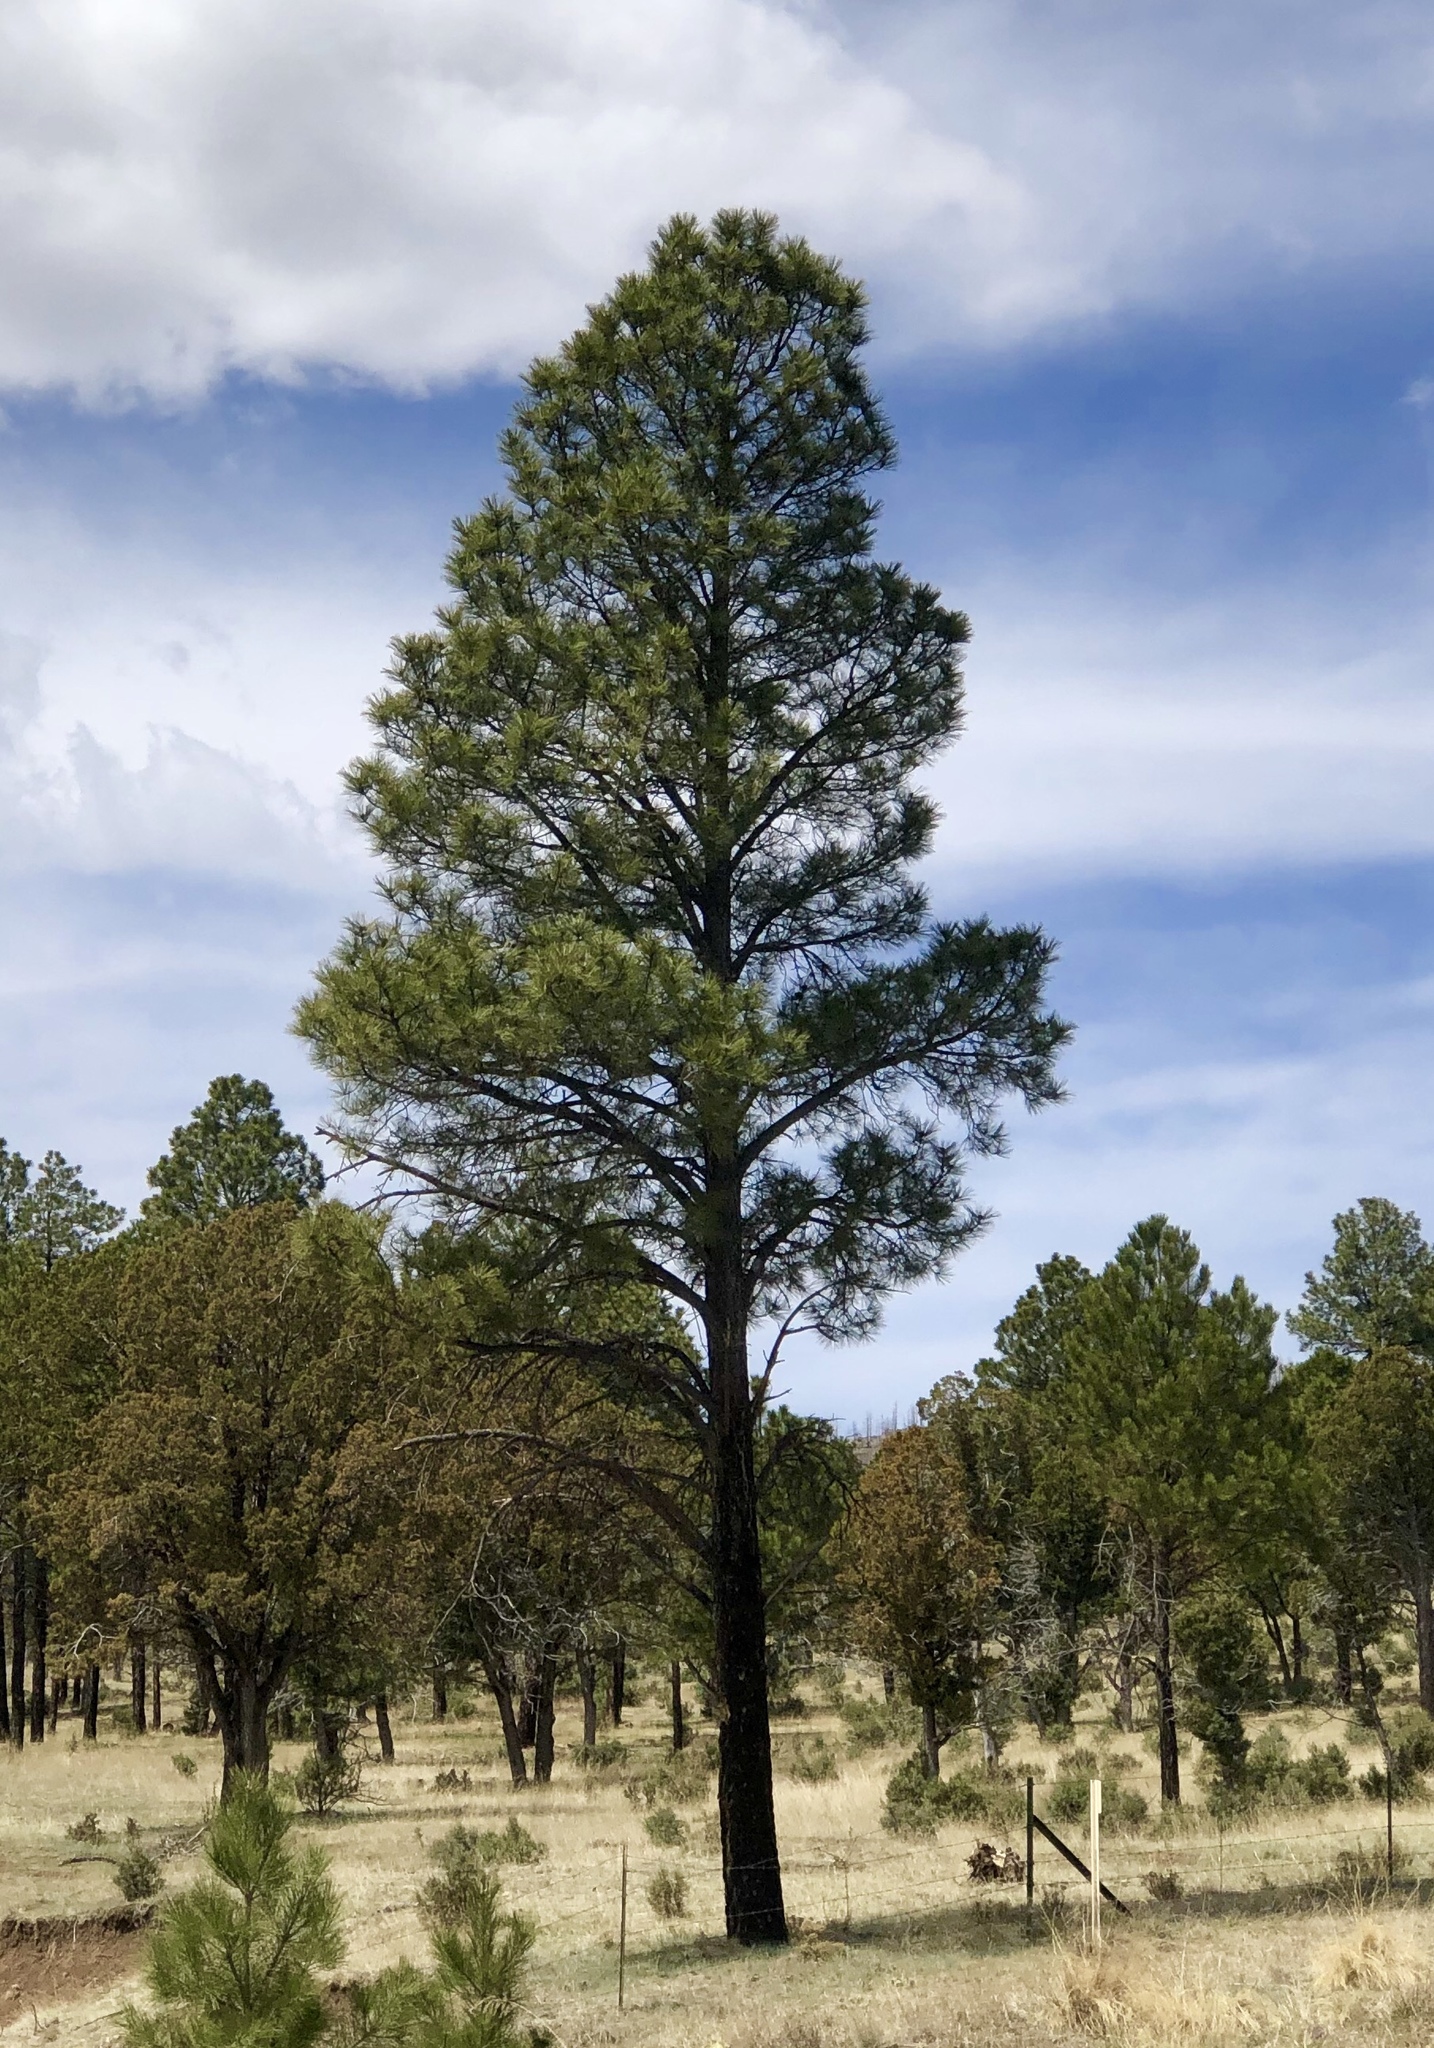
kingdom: Plantae
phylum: Tracheophyta
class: Pinopsida
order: Pinales
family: Pinaceae
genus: Pinus
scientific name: Pinus ponderosa
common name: Western yellow-pine
